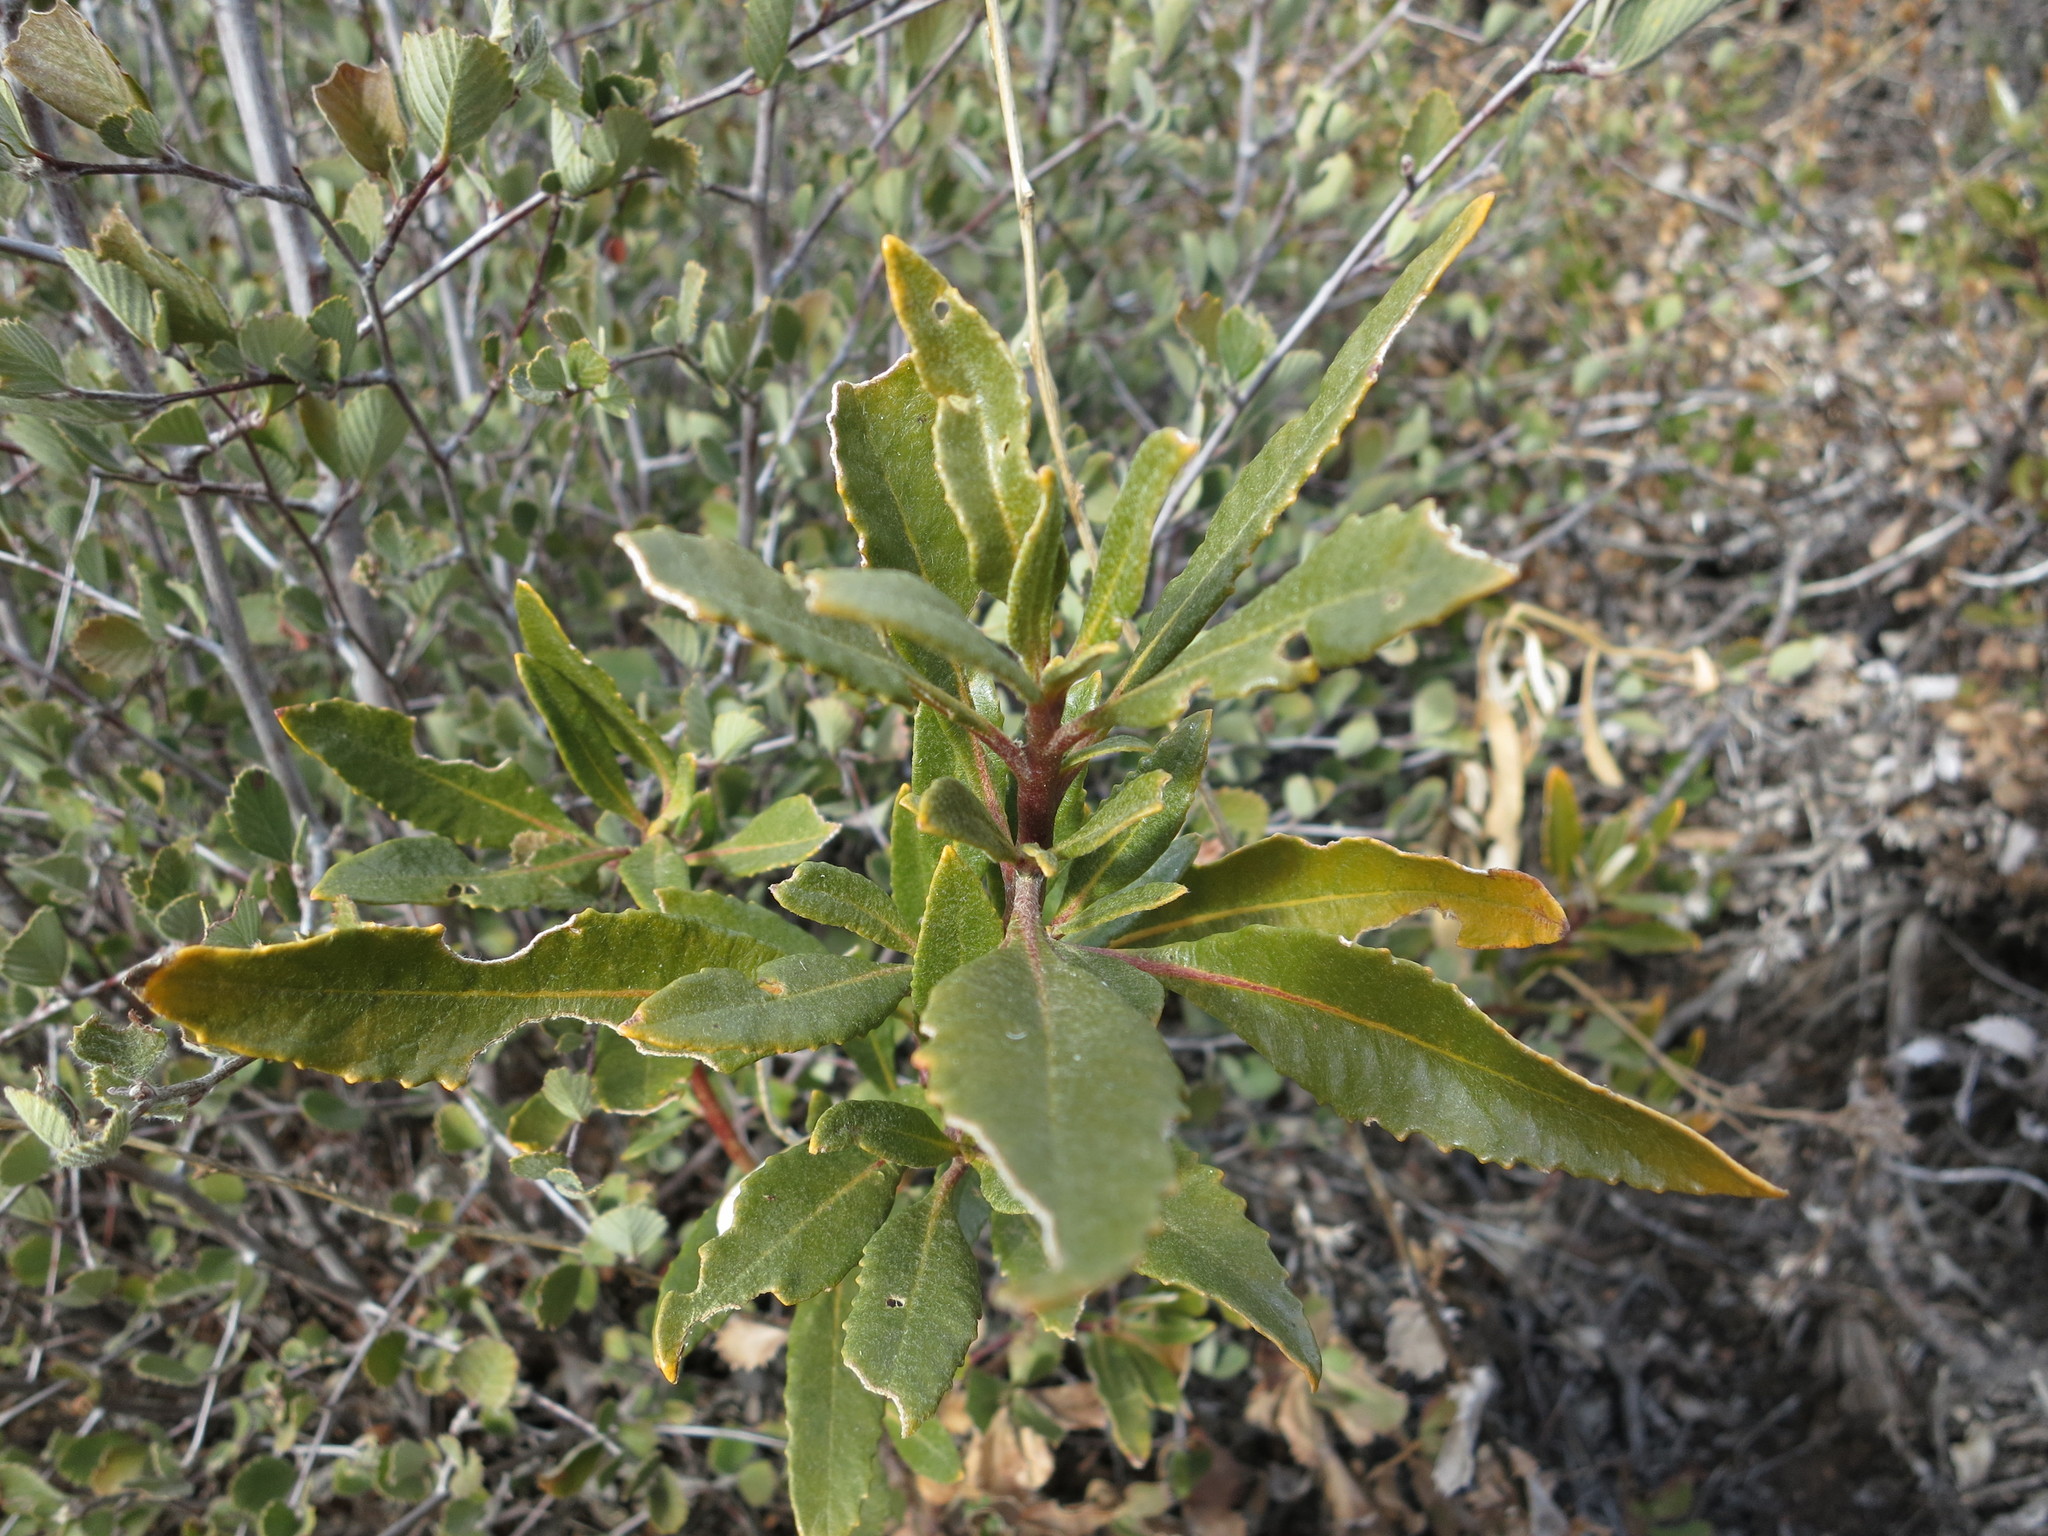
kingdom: Plantae
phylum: Tracheophyta
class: Magnoliopsida
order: Boraginales
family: Namaceae
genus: Eriodictyon
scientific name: Eriodictyon trichocalyx
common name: Hairy yerba-santa
